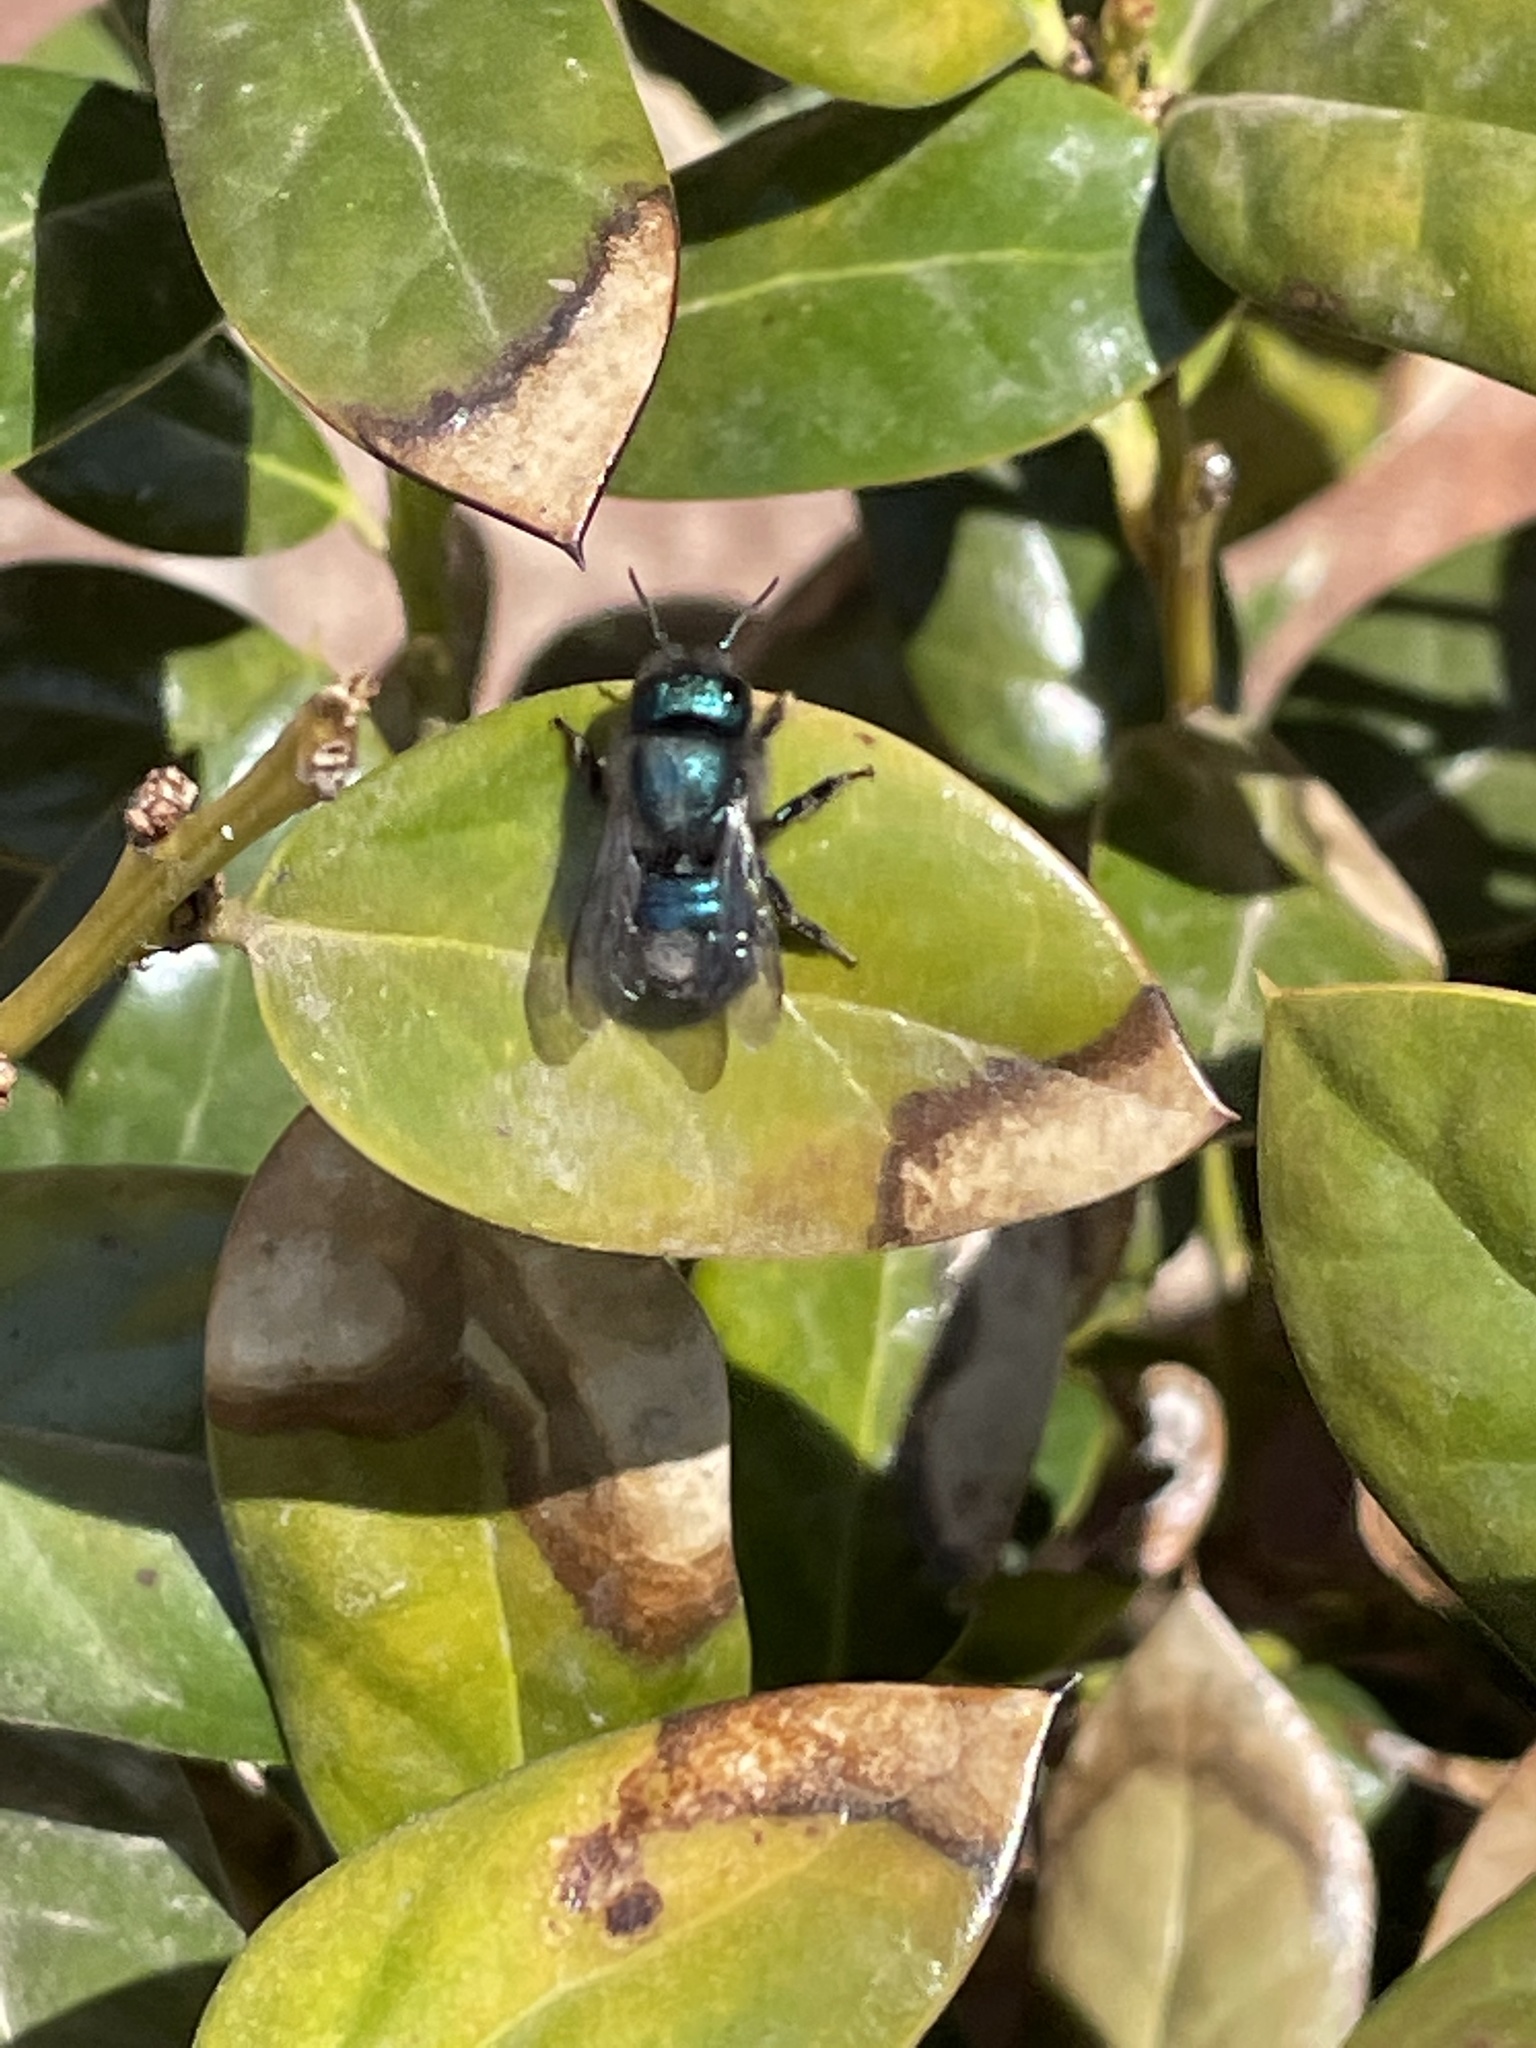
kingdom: Animalia
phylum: Arthropoda
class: Insecta
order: Hymenoptera
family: Megachilidae
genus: Osmia
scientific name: Osmia ribifloris
